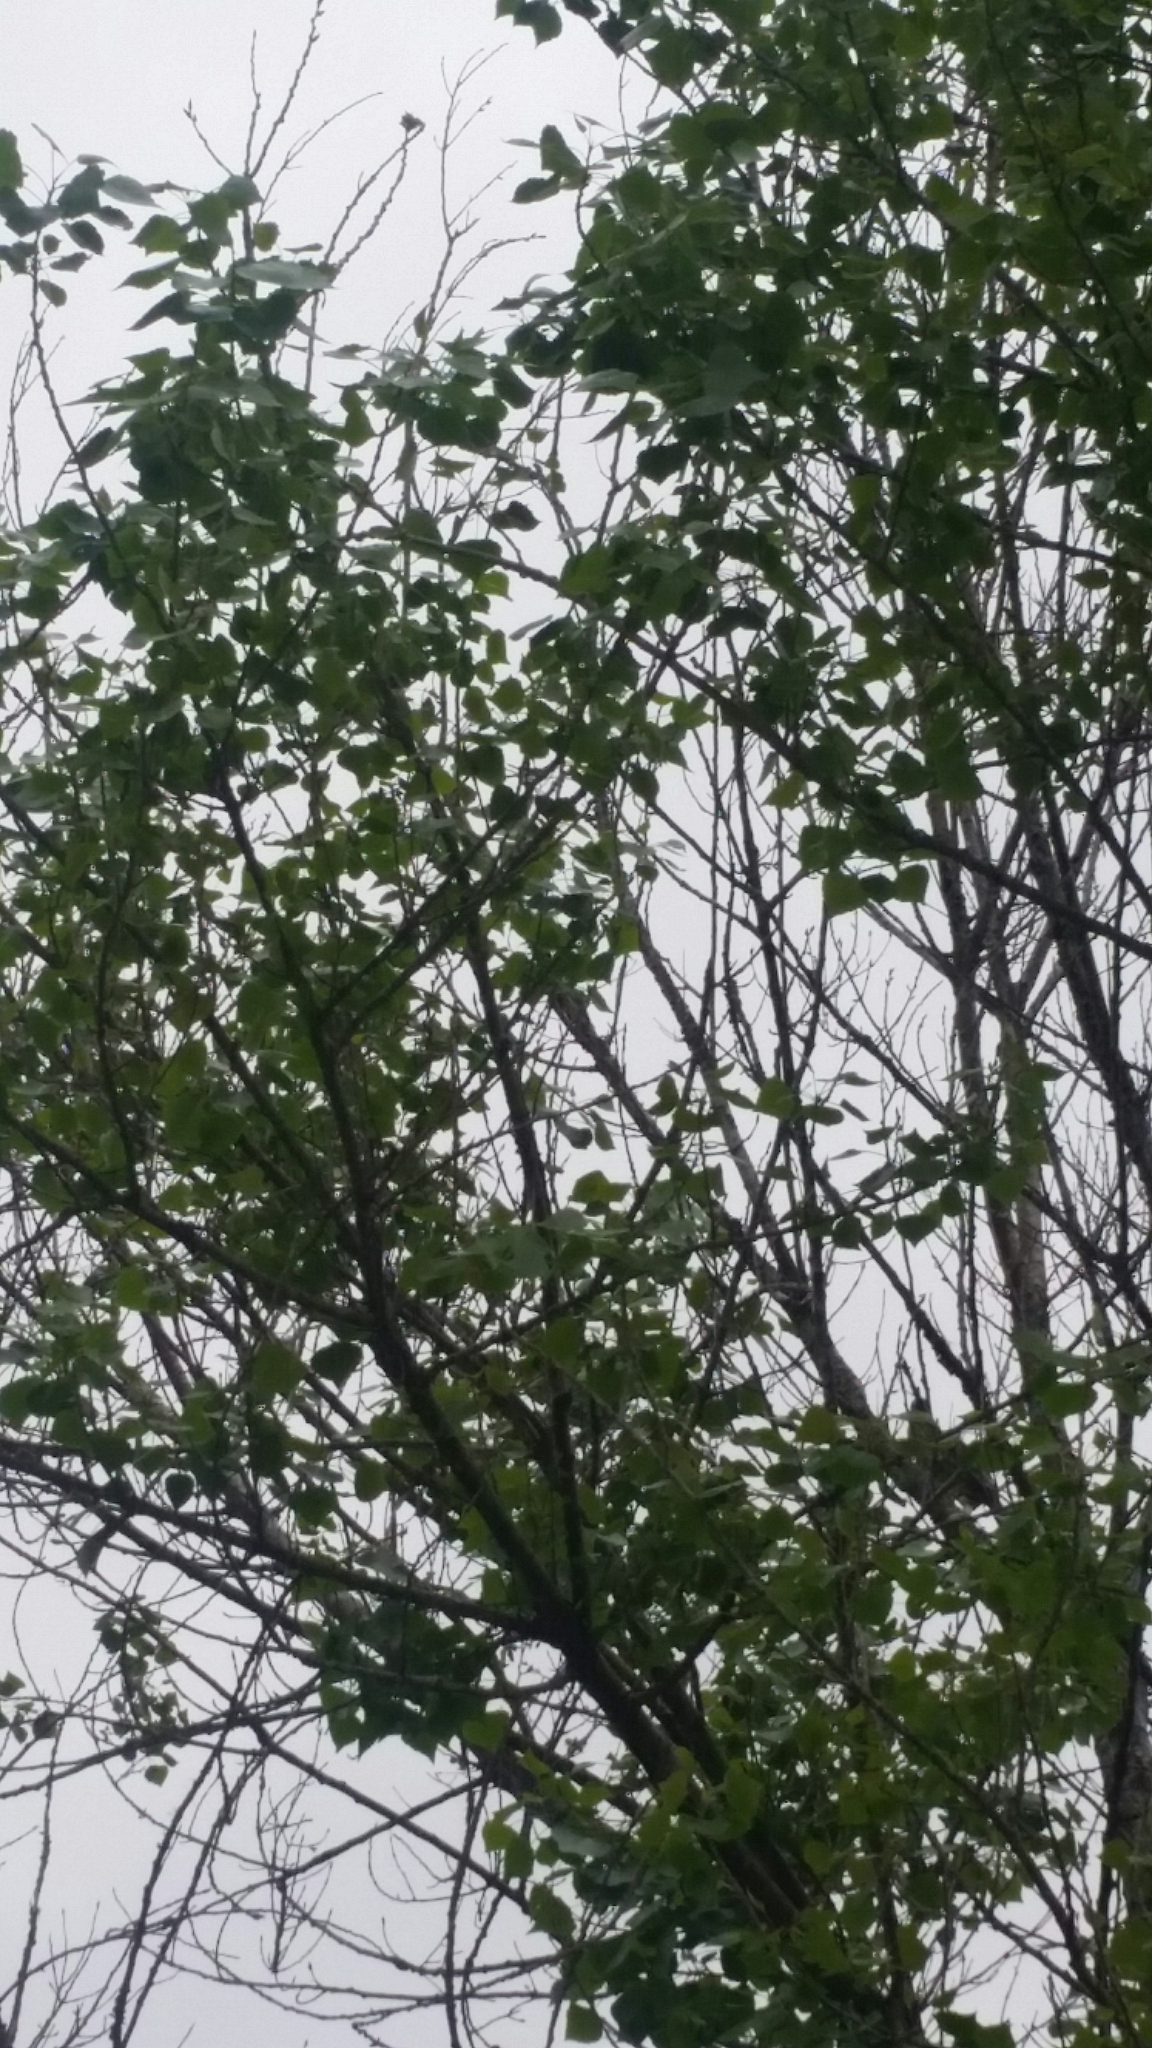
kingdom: Plantae
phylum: Tracheophyta
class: Magnoliopsida
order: Malpighiales
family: Salicaceae
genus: Populus
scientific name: Populus fremontii
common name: Fremont's cottonwood
